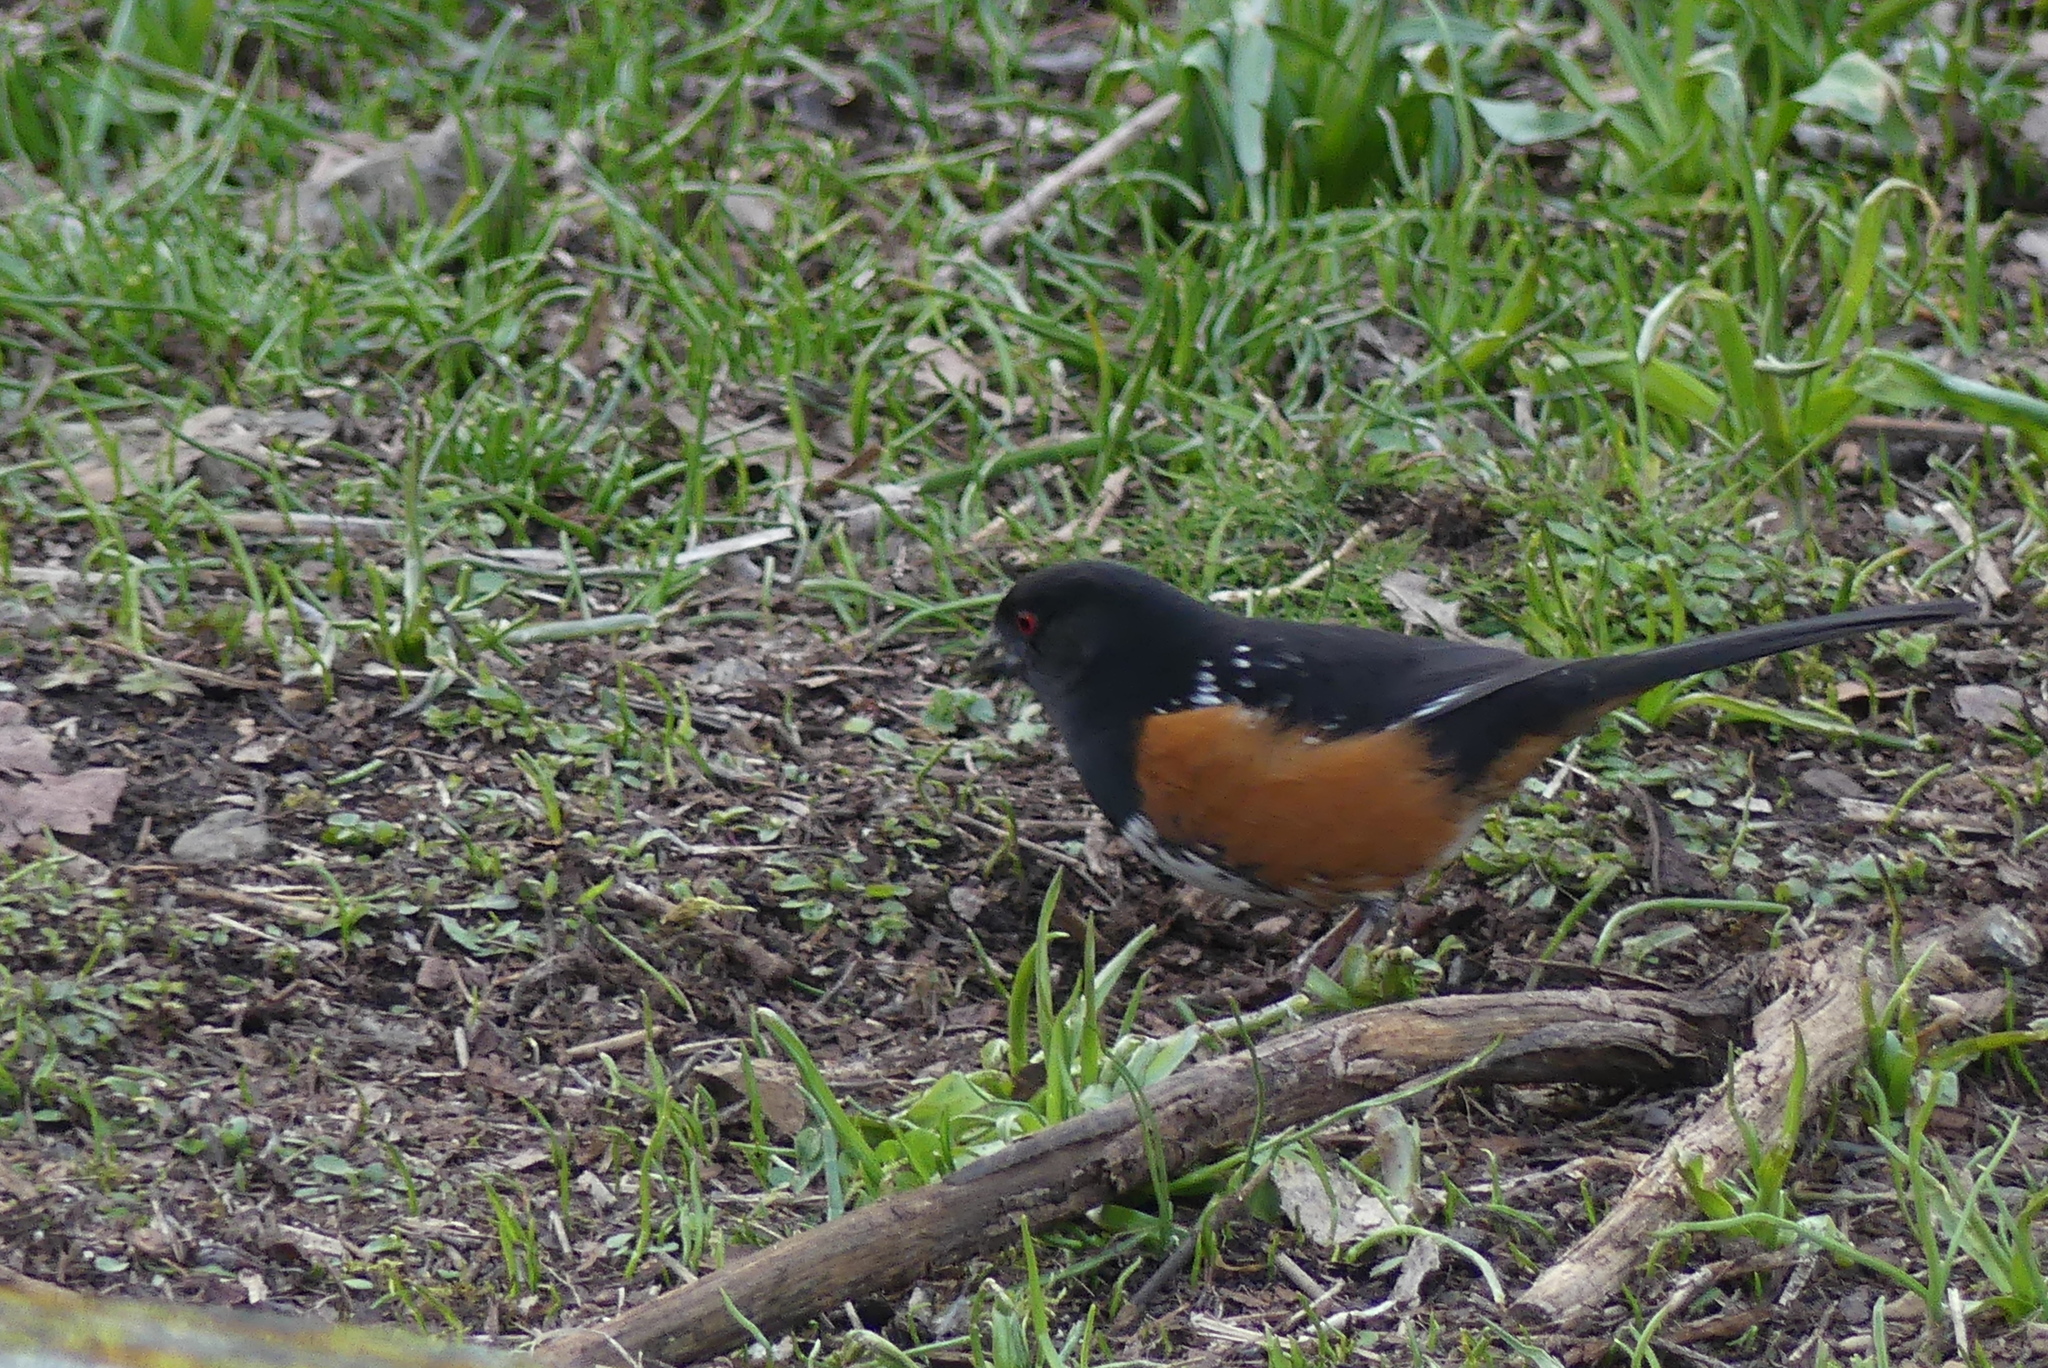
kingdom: Animalia
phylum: Chordata
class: Aves
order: Passeriformes
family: Passerellidae
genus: Pipilo
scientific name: Pipilo maculatus
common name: Spotted towhee
